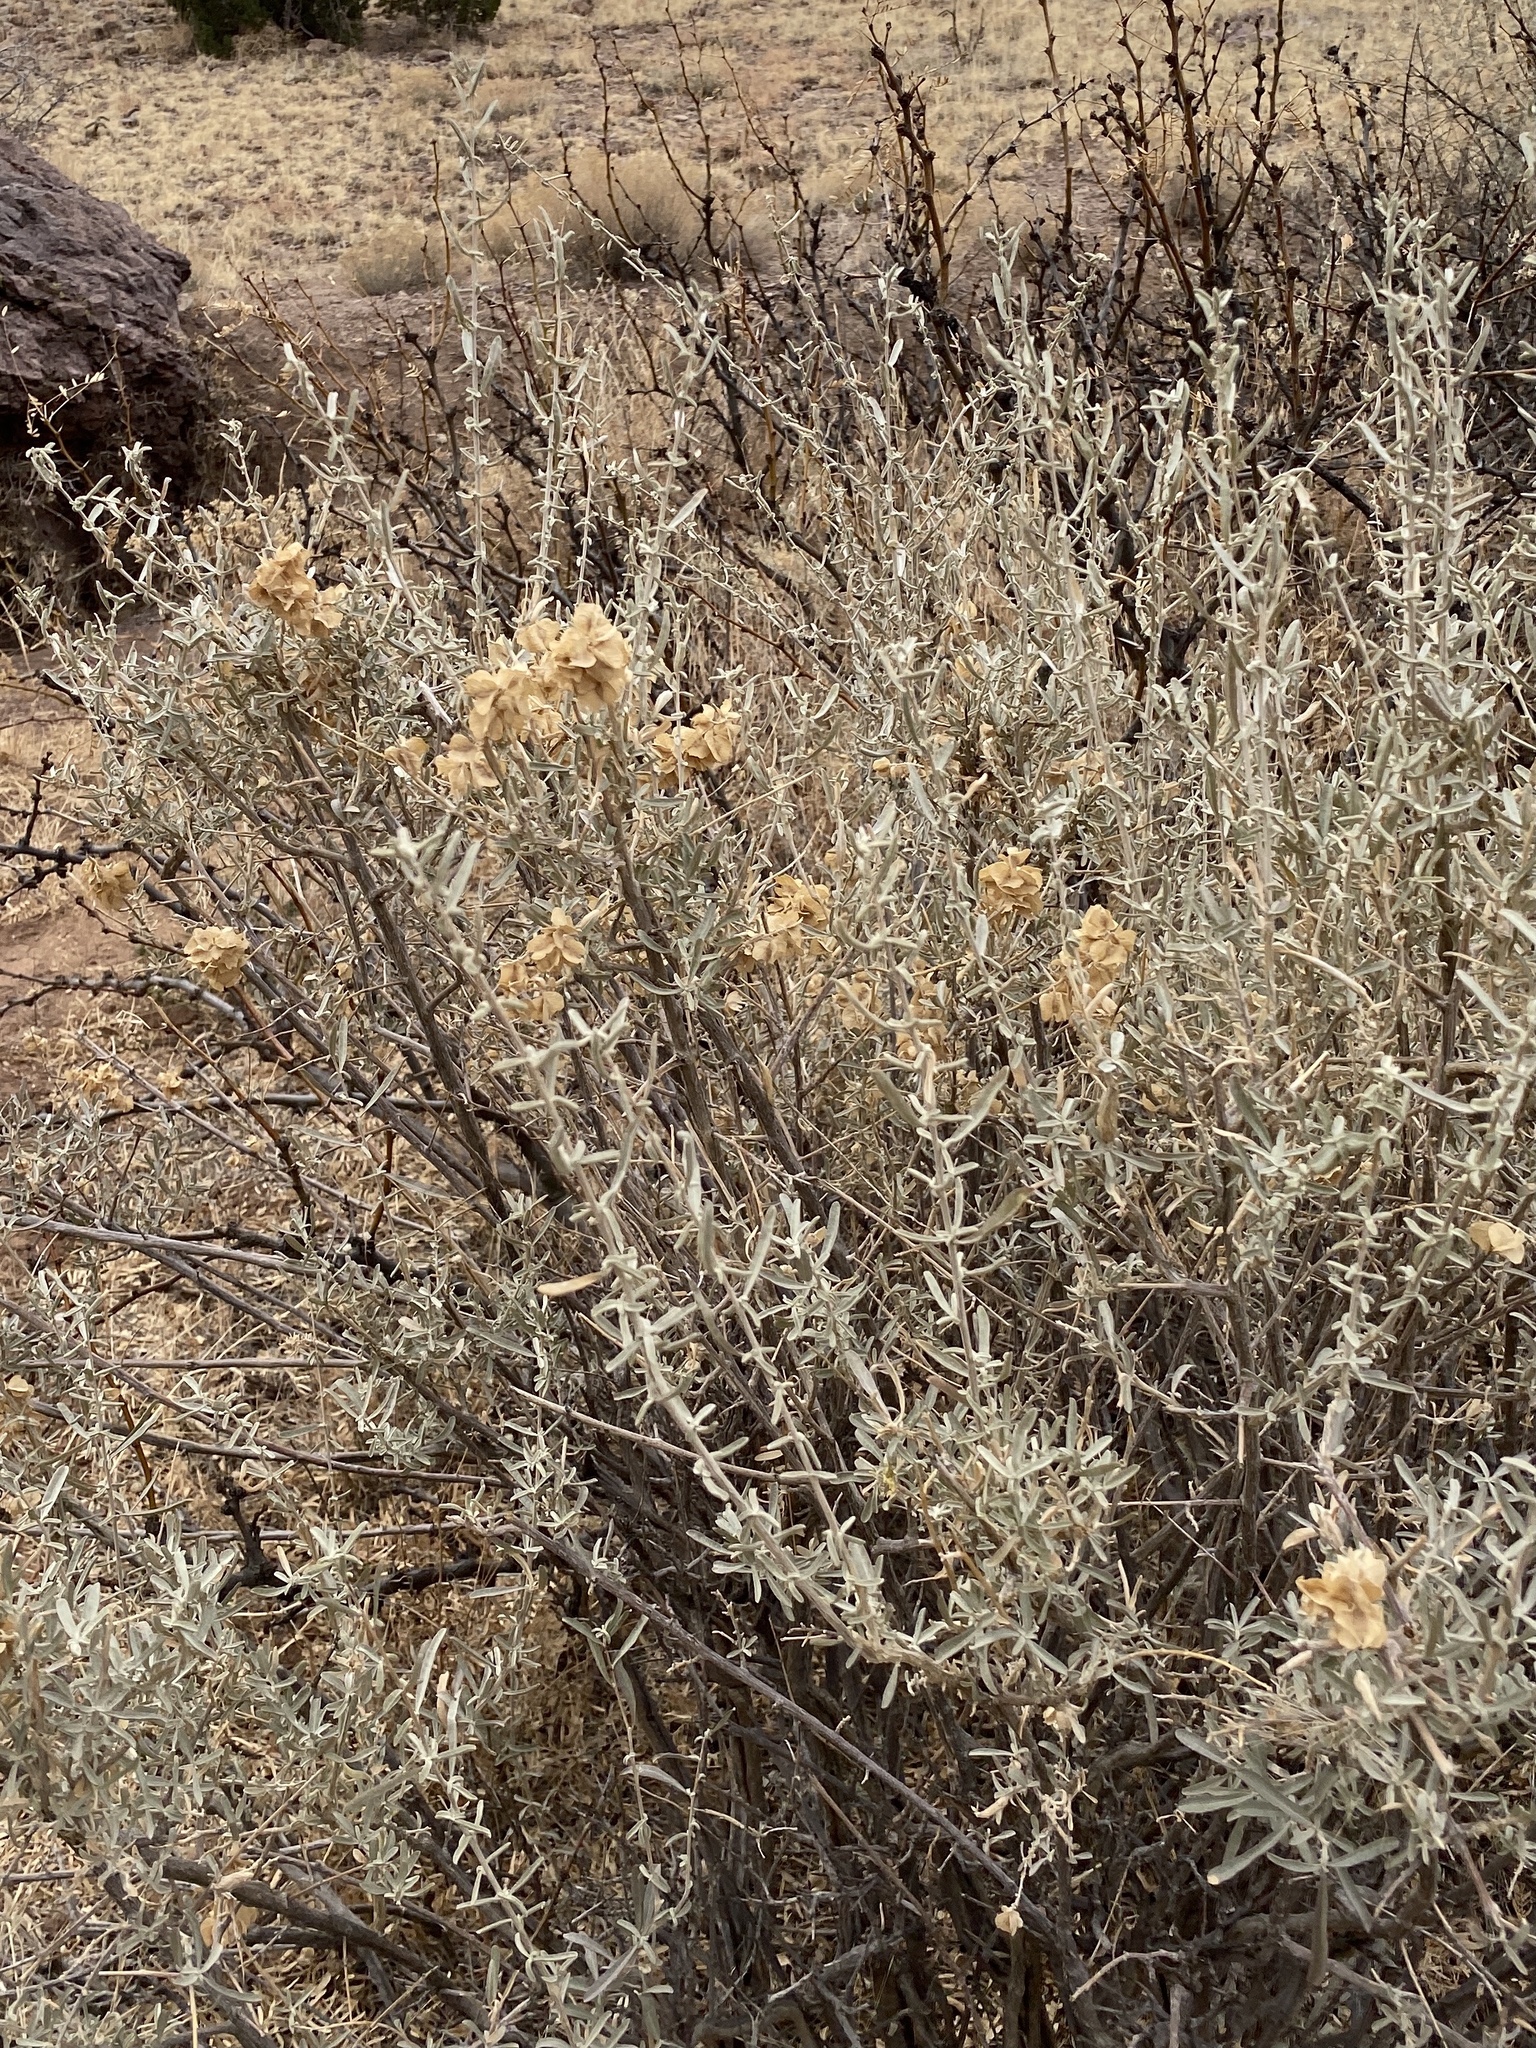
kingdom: Plantae
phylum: Tracheophyta
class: Magnoliopsida
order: Caryophyllales
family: Amaranthaceae
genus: Atriplex
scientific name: Atriplex canescens
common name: Four-wing saltbush
